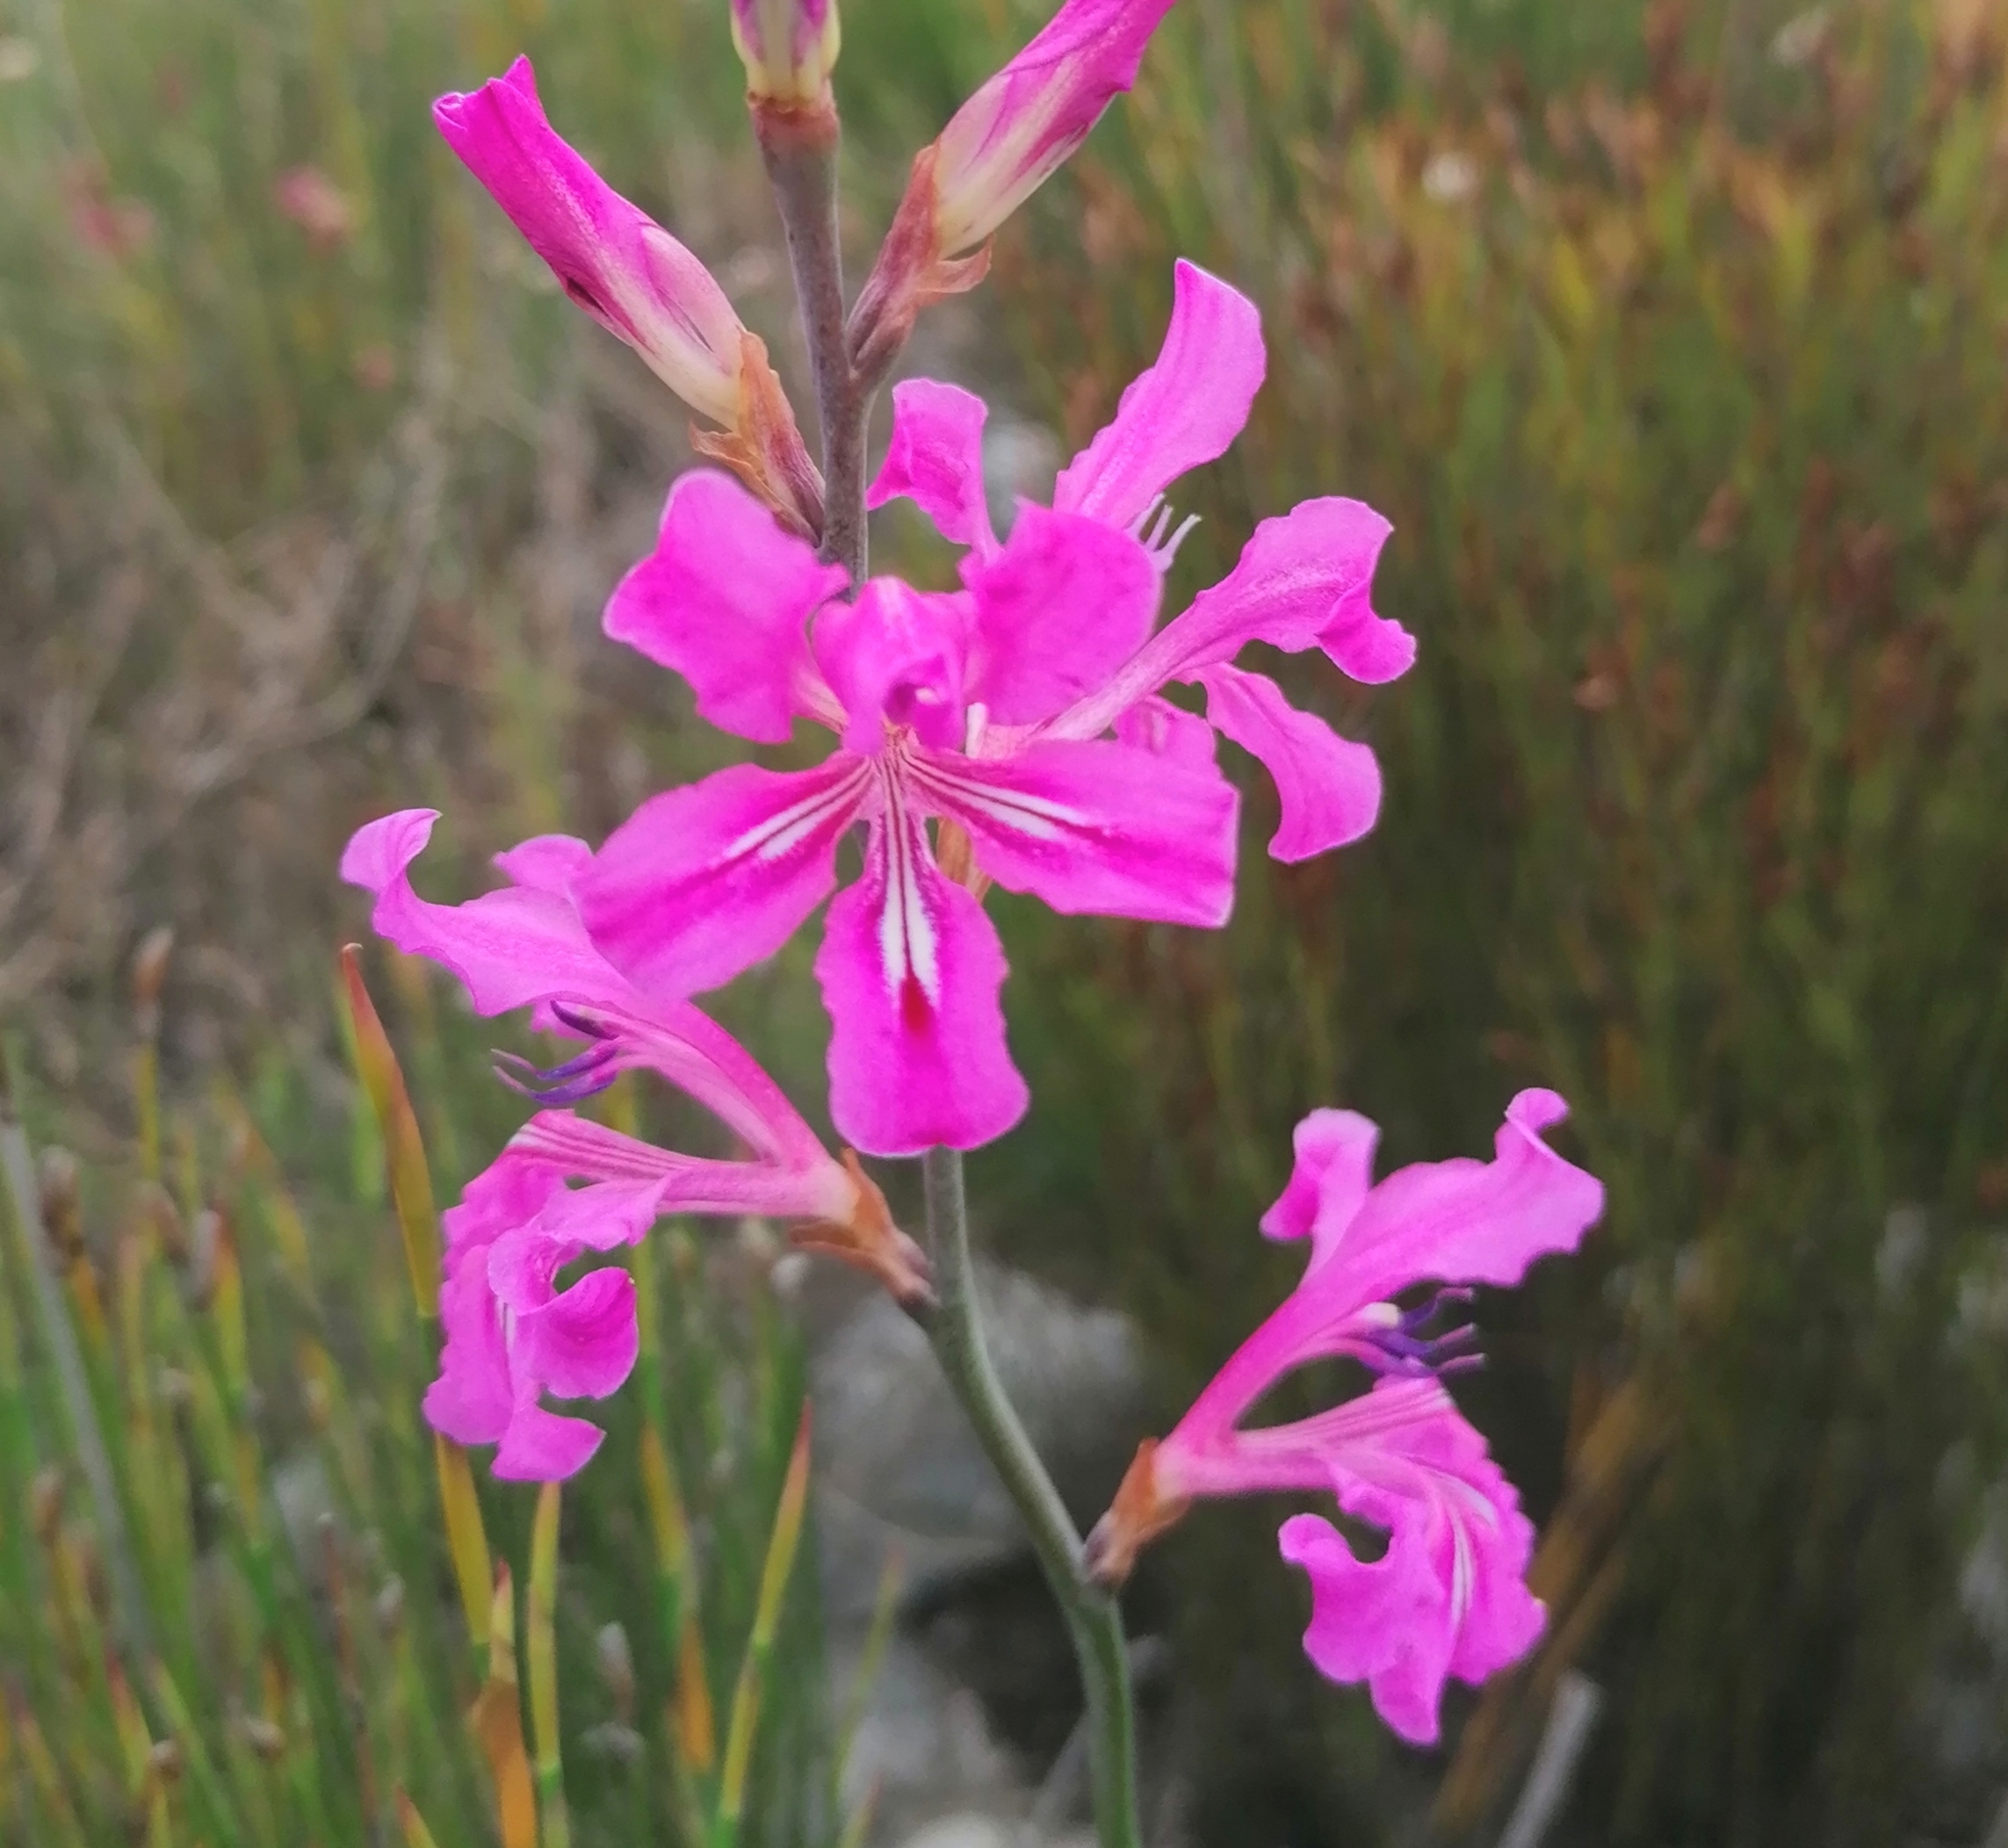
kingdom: Plantae
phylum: Tracheophyta
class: Liliopsida
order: Asparagales
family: Iridaceae
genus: Tritoniopsis
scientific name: Tritoniopsis lata
